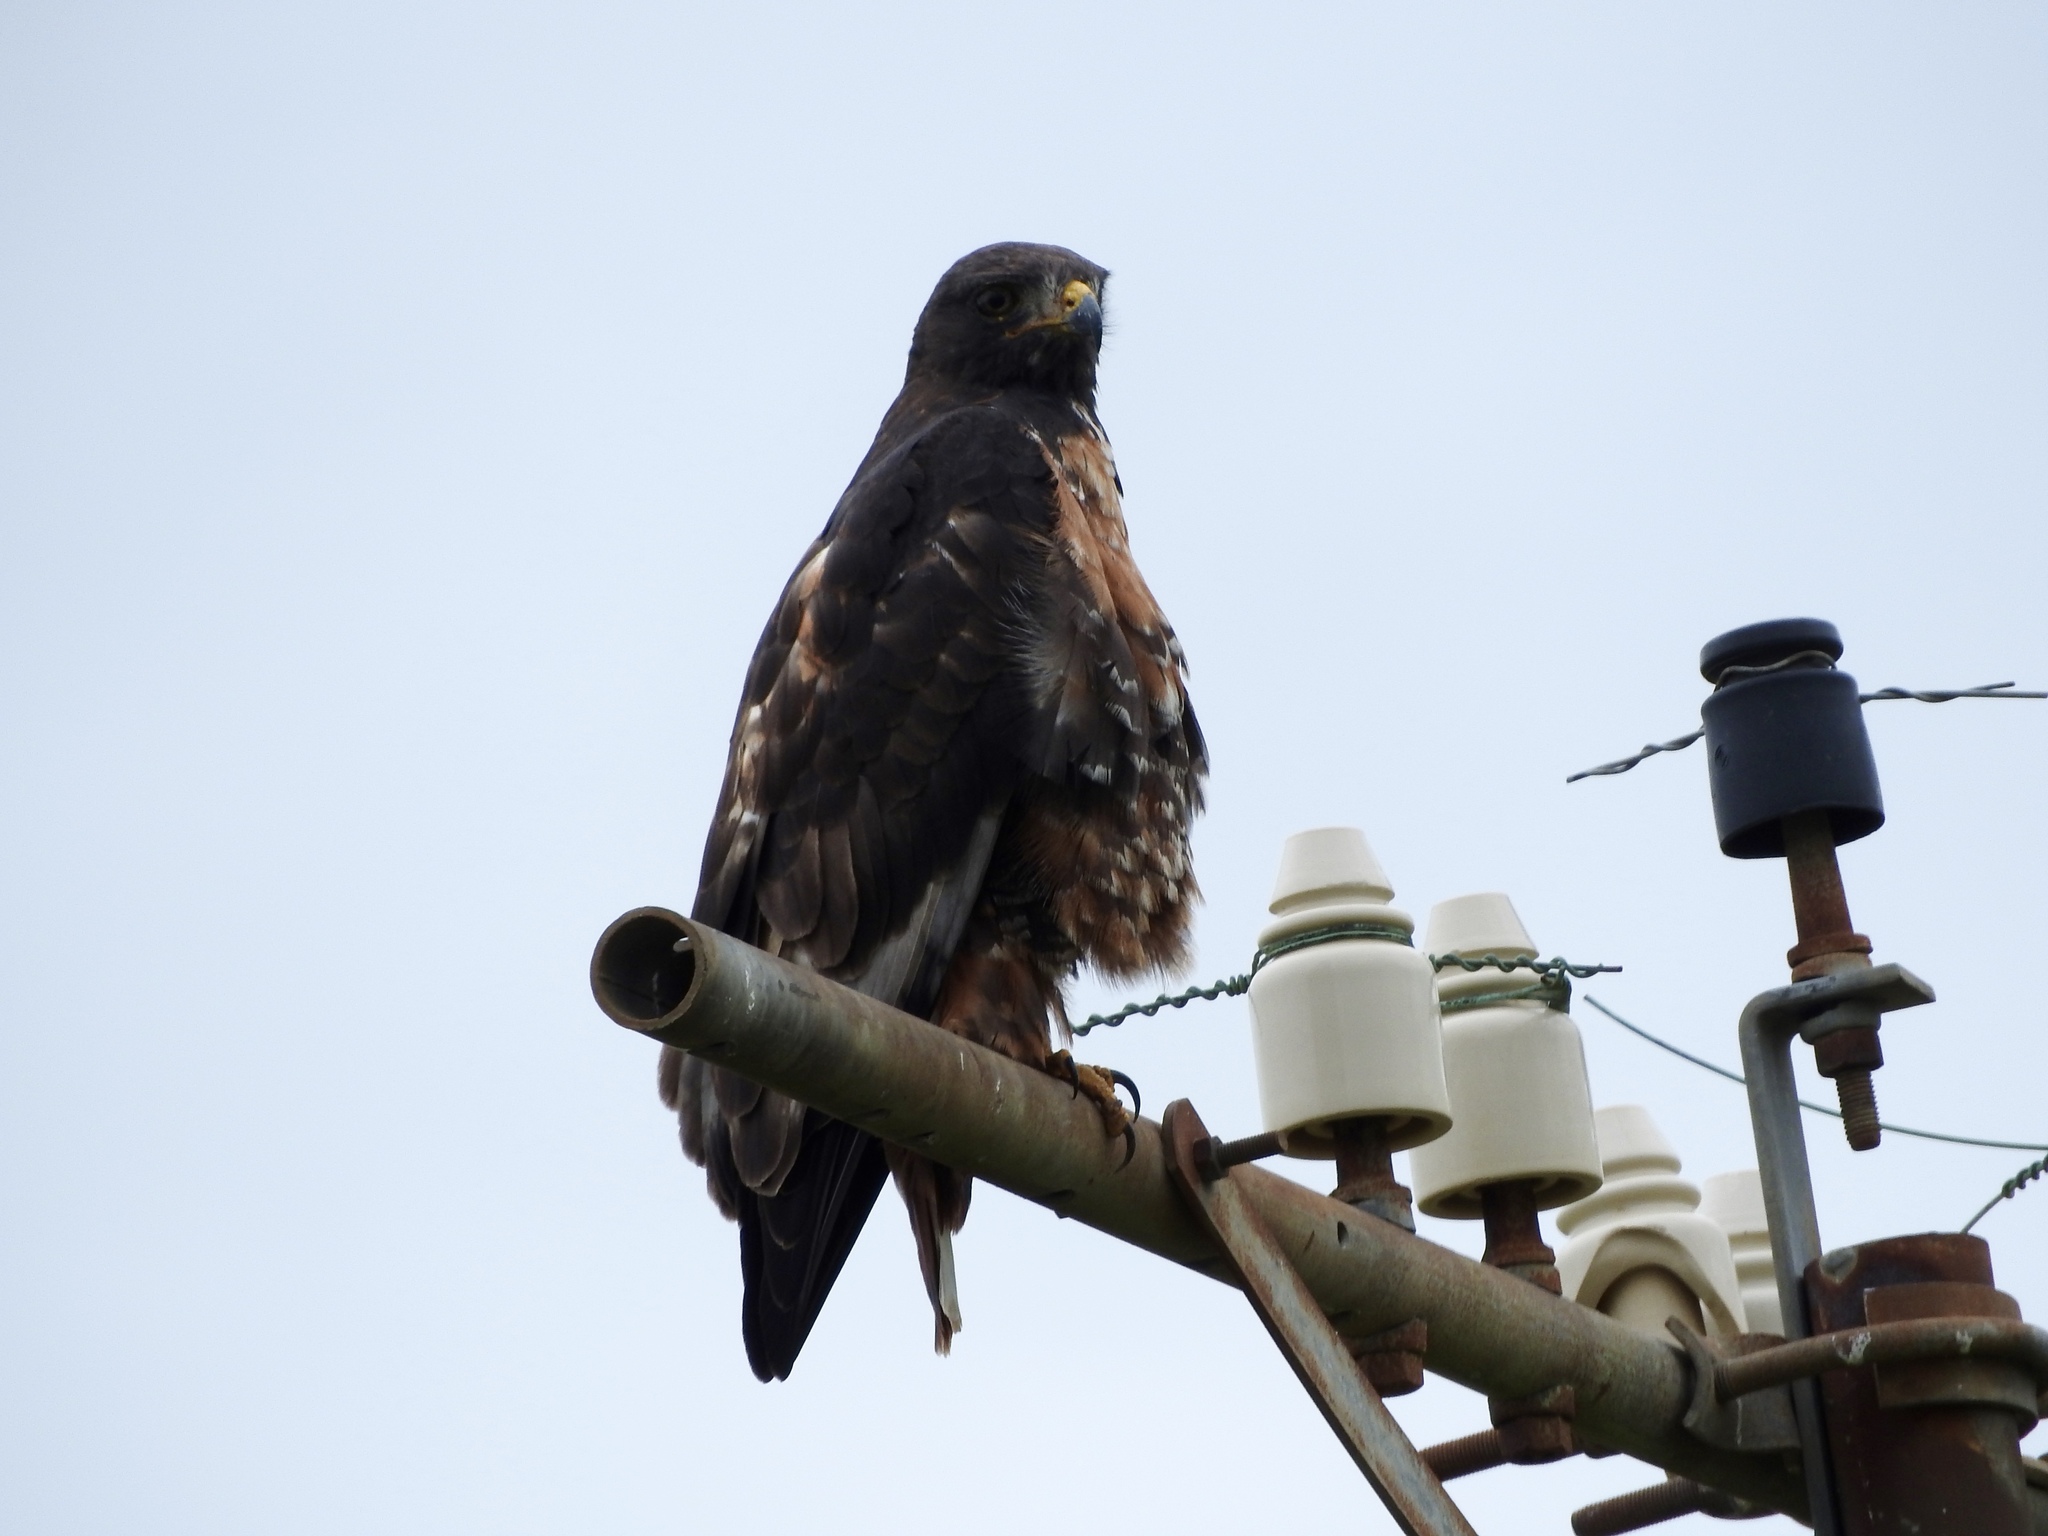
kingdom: Animalia
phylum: Chordata
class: Aves
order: Accipitriformes
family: Accipitridae
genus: Buteo
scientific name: Buteo rufofuscus
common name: Jackal buzzard
